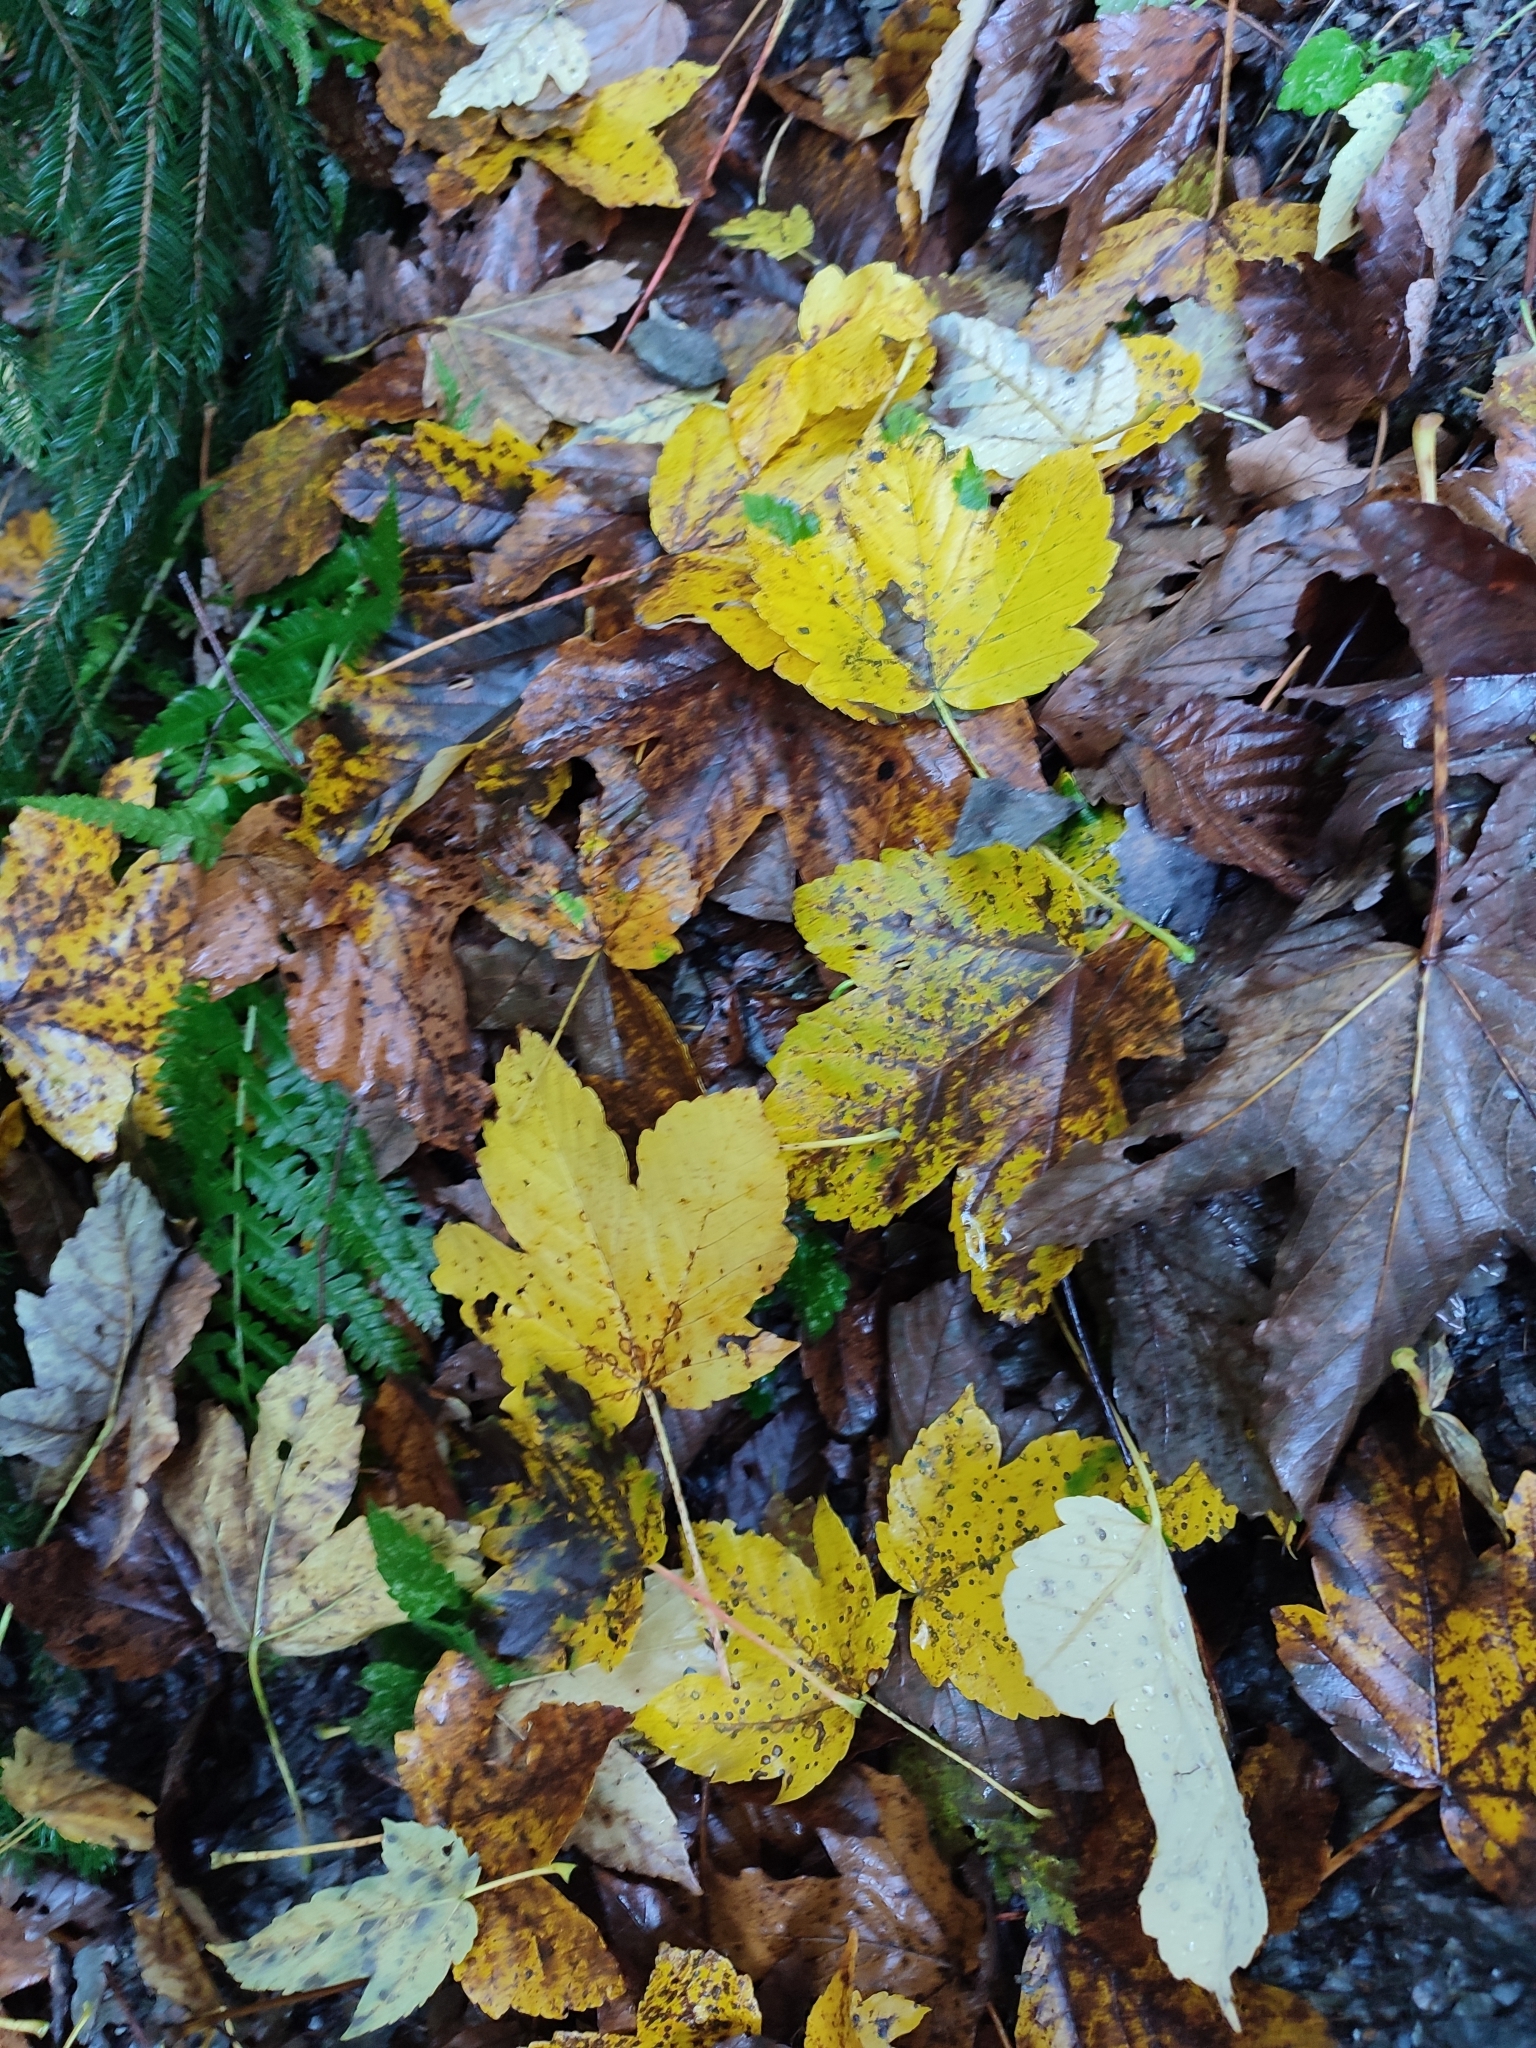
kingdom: Plantae
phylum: Tracheophyta
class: Magnoliopsida
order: Sapindales
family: Sapindaceae
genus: Acer
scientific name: Acer pseudoplatanus
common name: Sycamore
